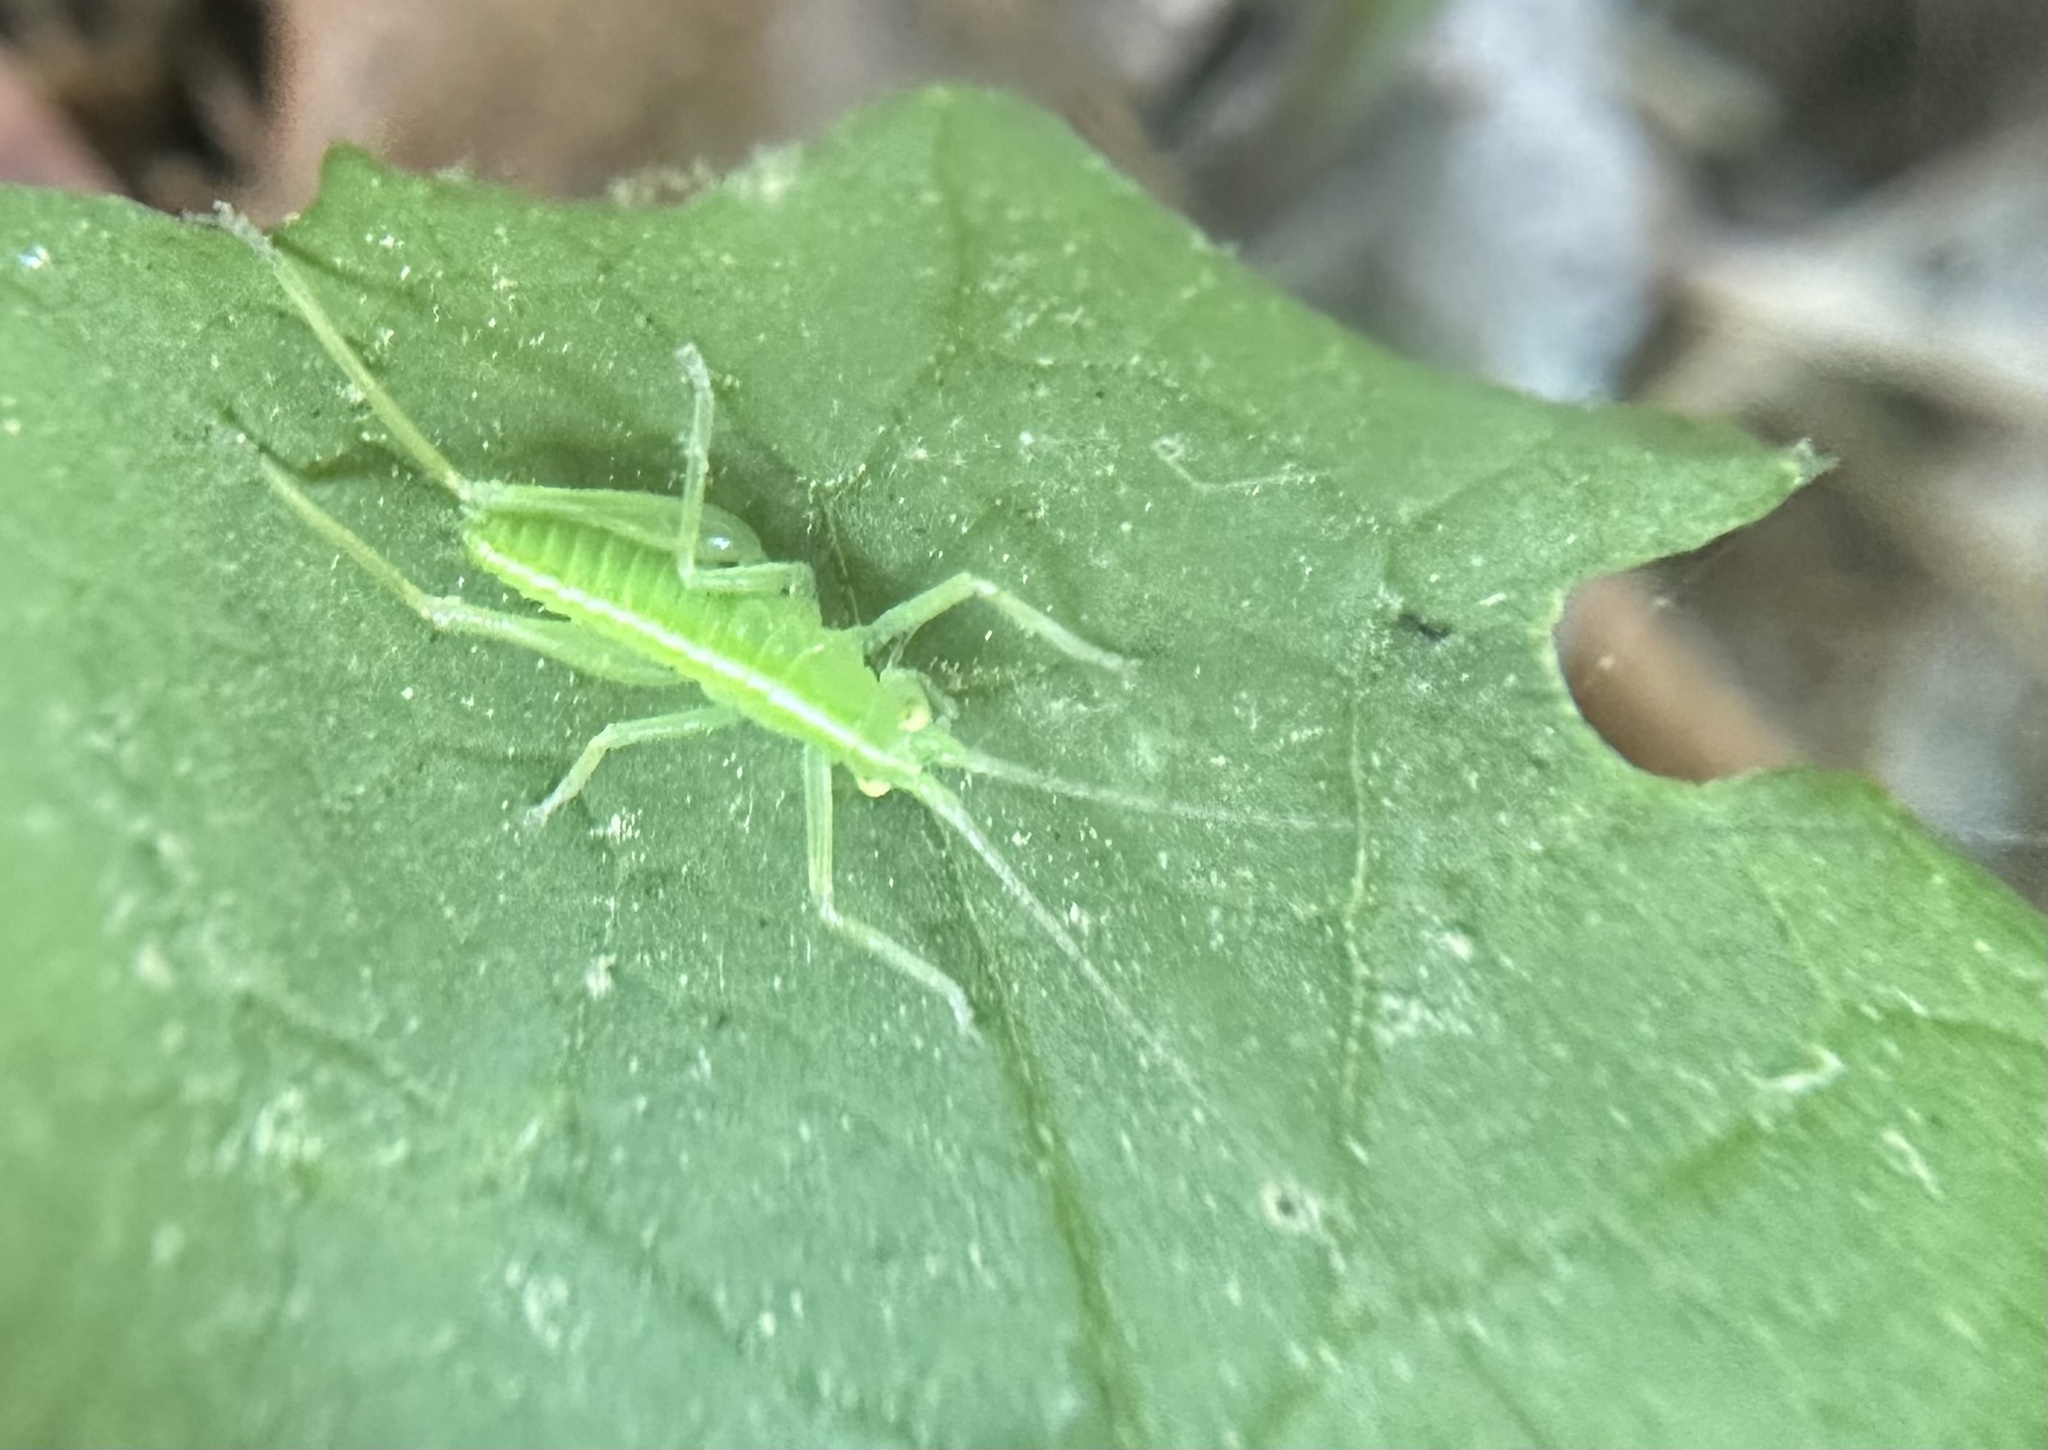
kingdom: Animalia
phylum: Arthropoda
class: Insecta
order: Orthoptera
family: Tettigoniidae
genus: Meconema
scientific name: Meconema thalassinum
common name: Oak bush-cricket
